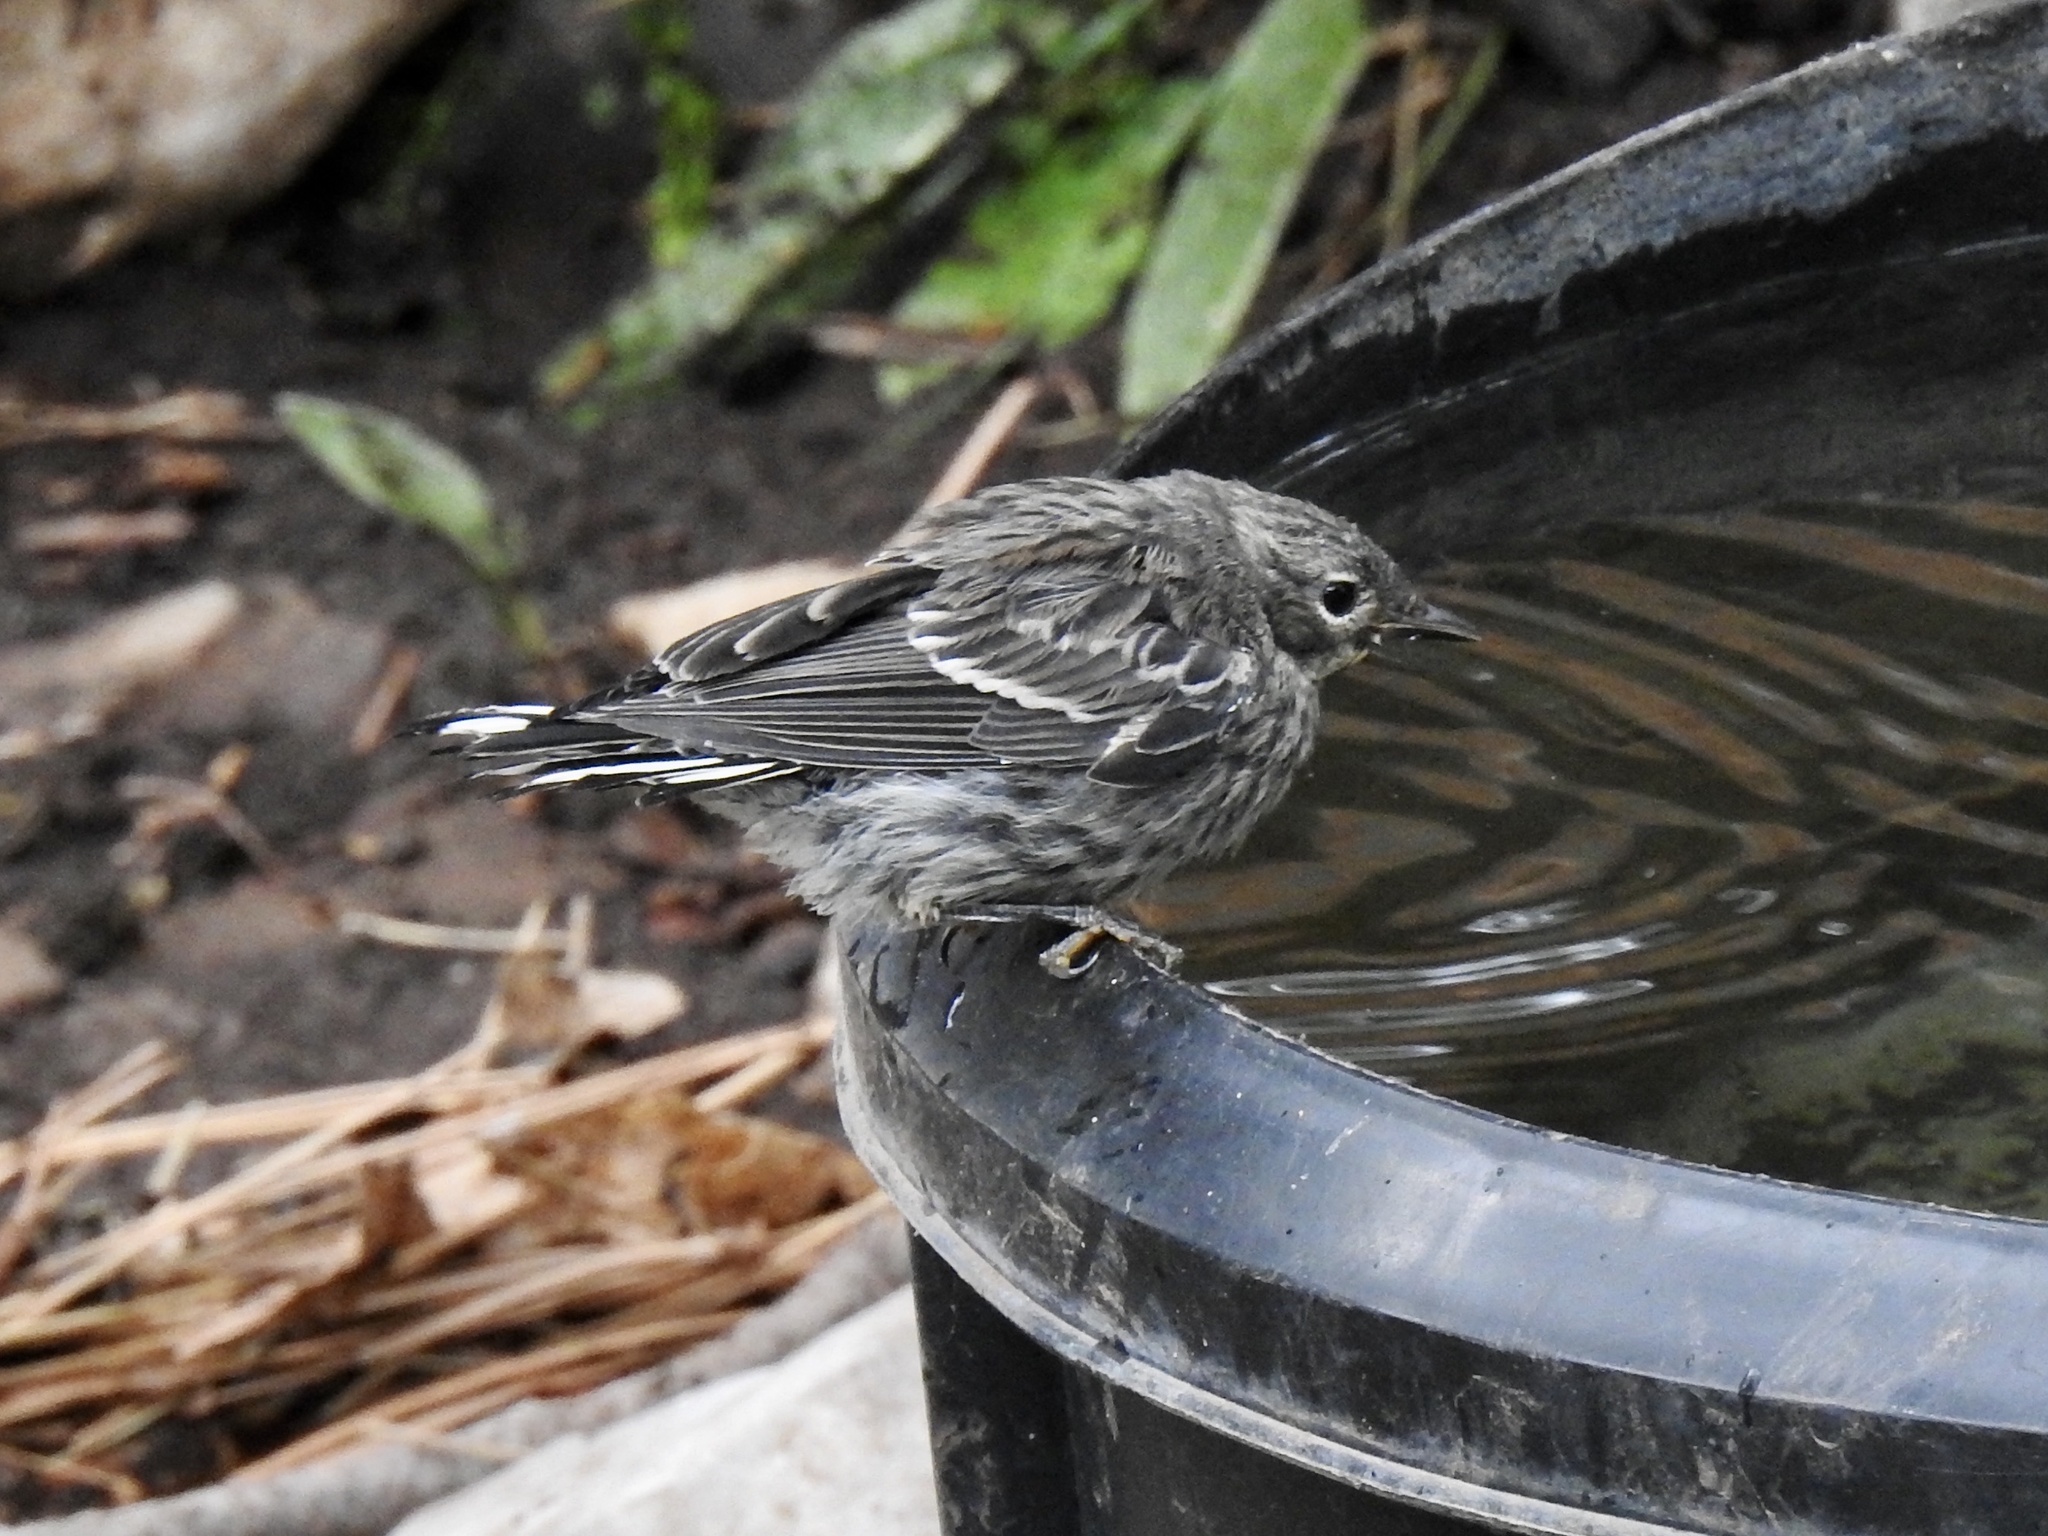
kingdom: Animalia
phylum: Chordata
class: Aves
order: Passeriformes
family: Parulidae
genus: Setophaga
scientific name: Setophaga coronata
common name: Myrtle warbler
